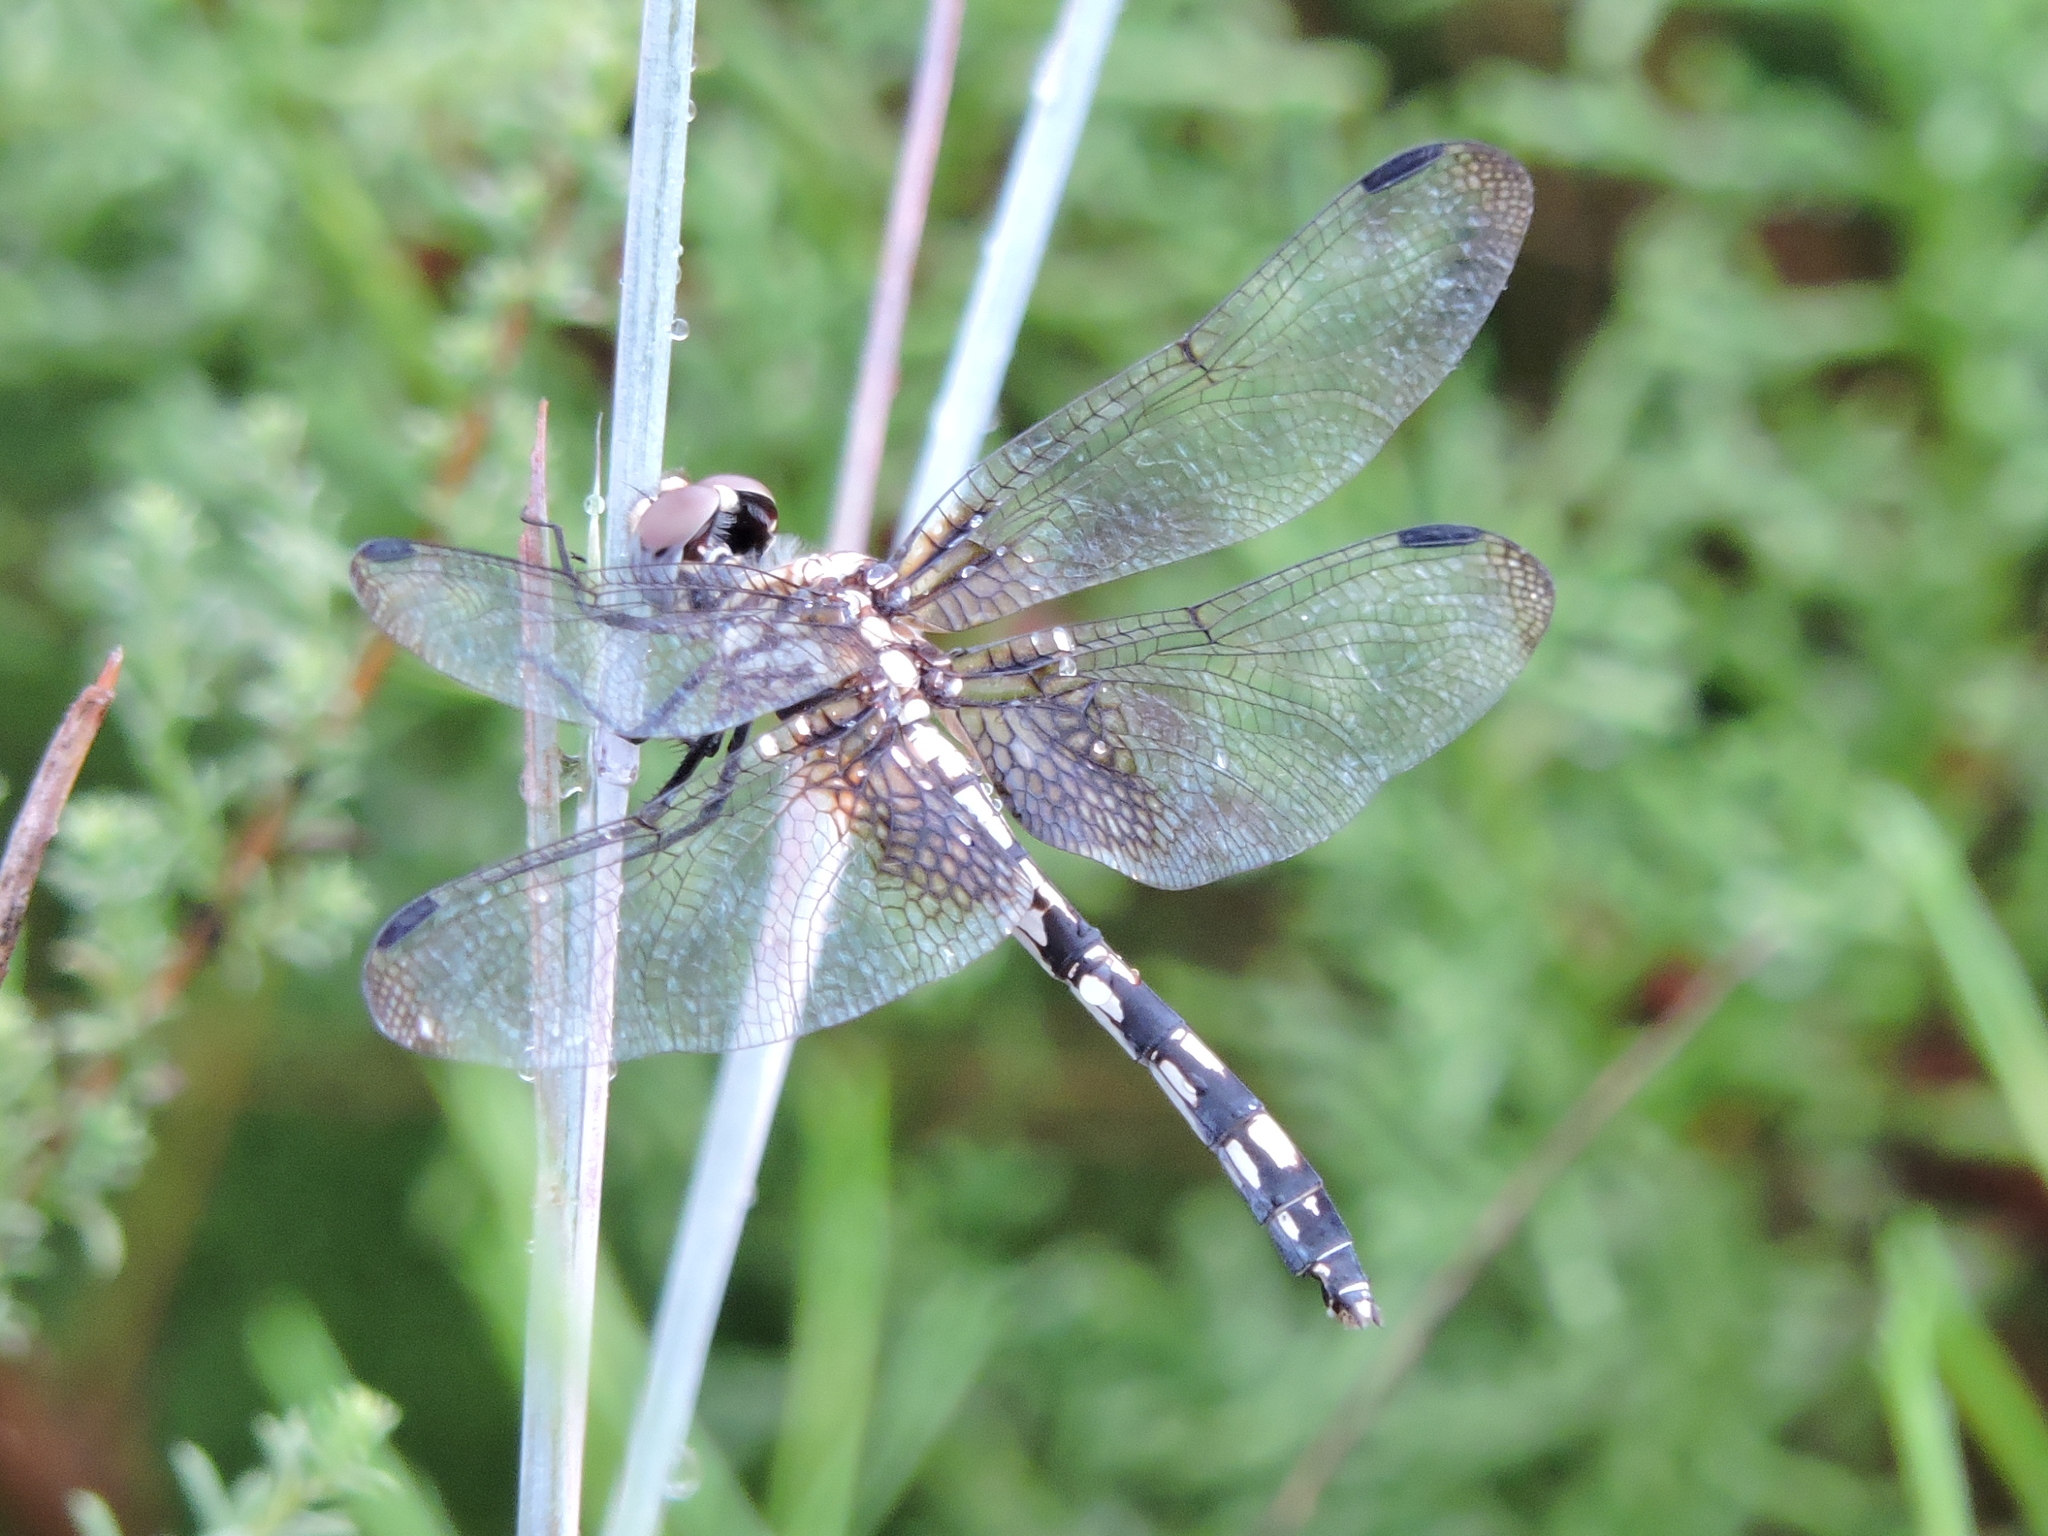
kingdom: Animalia
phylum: Arthropoda
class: Insecta
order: Odonata
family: Libellulidae
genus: Dythemis
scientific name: Dythemis fugax
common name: Checkered setwing
